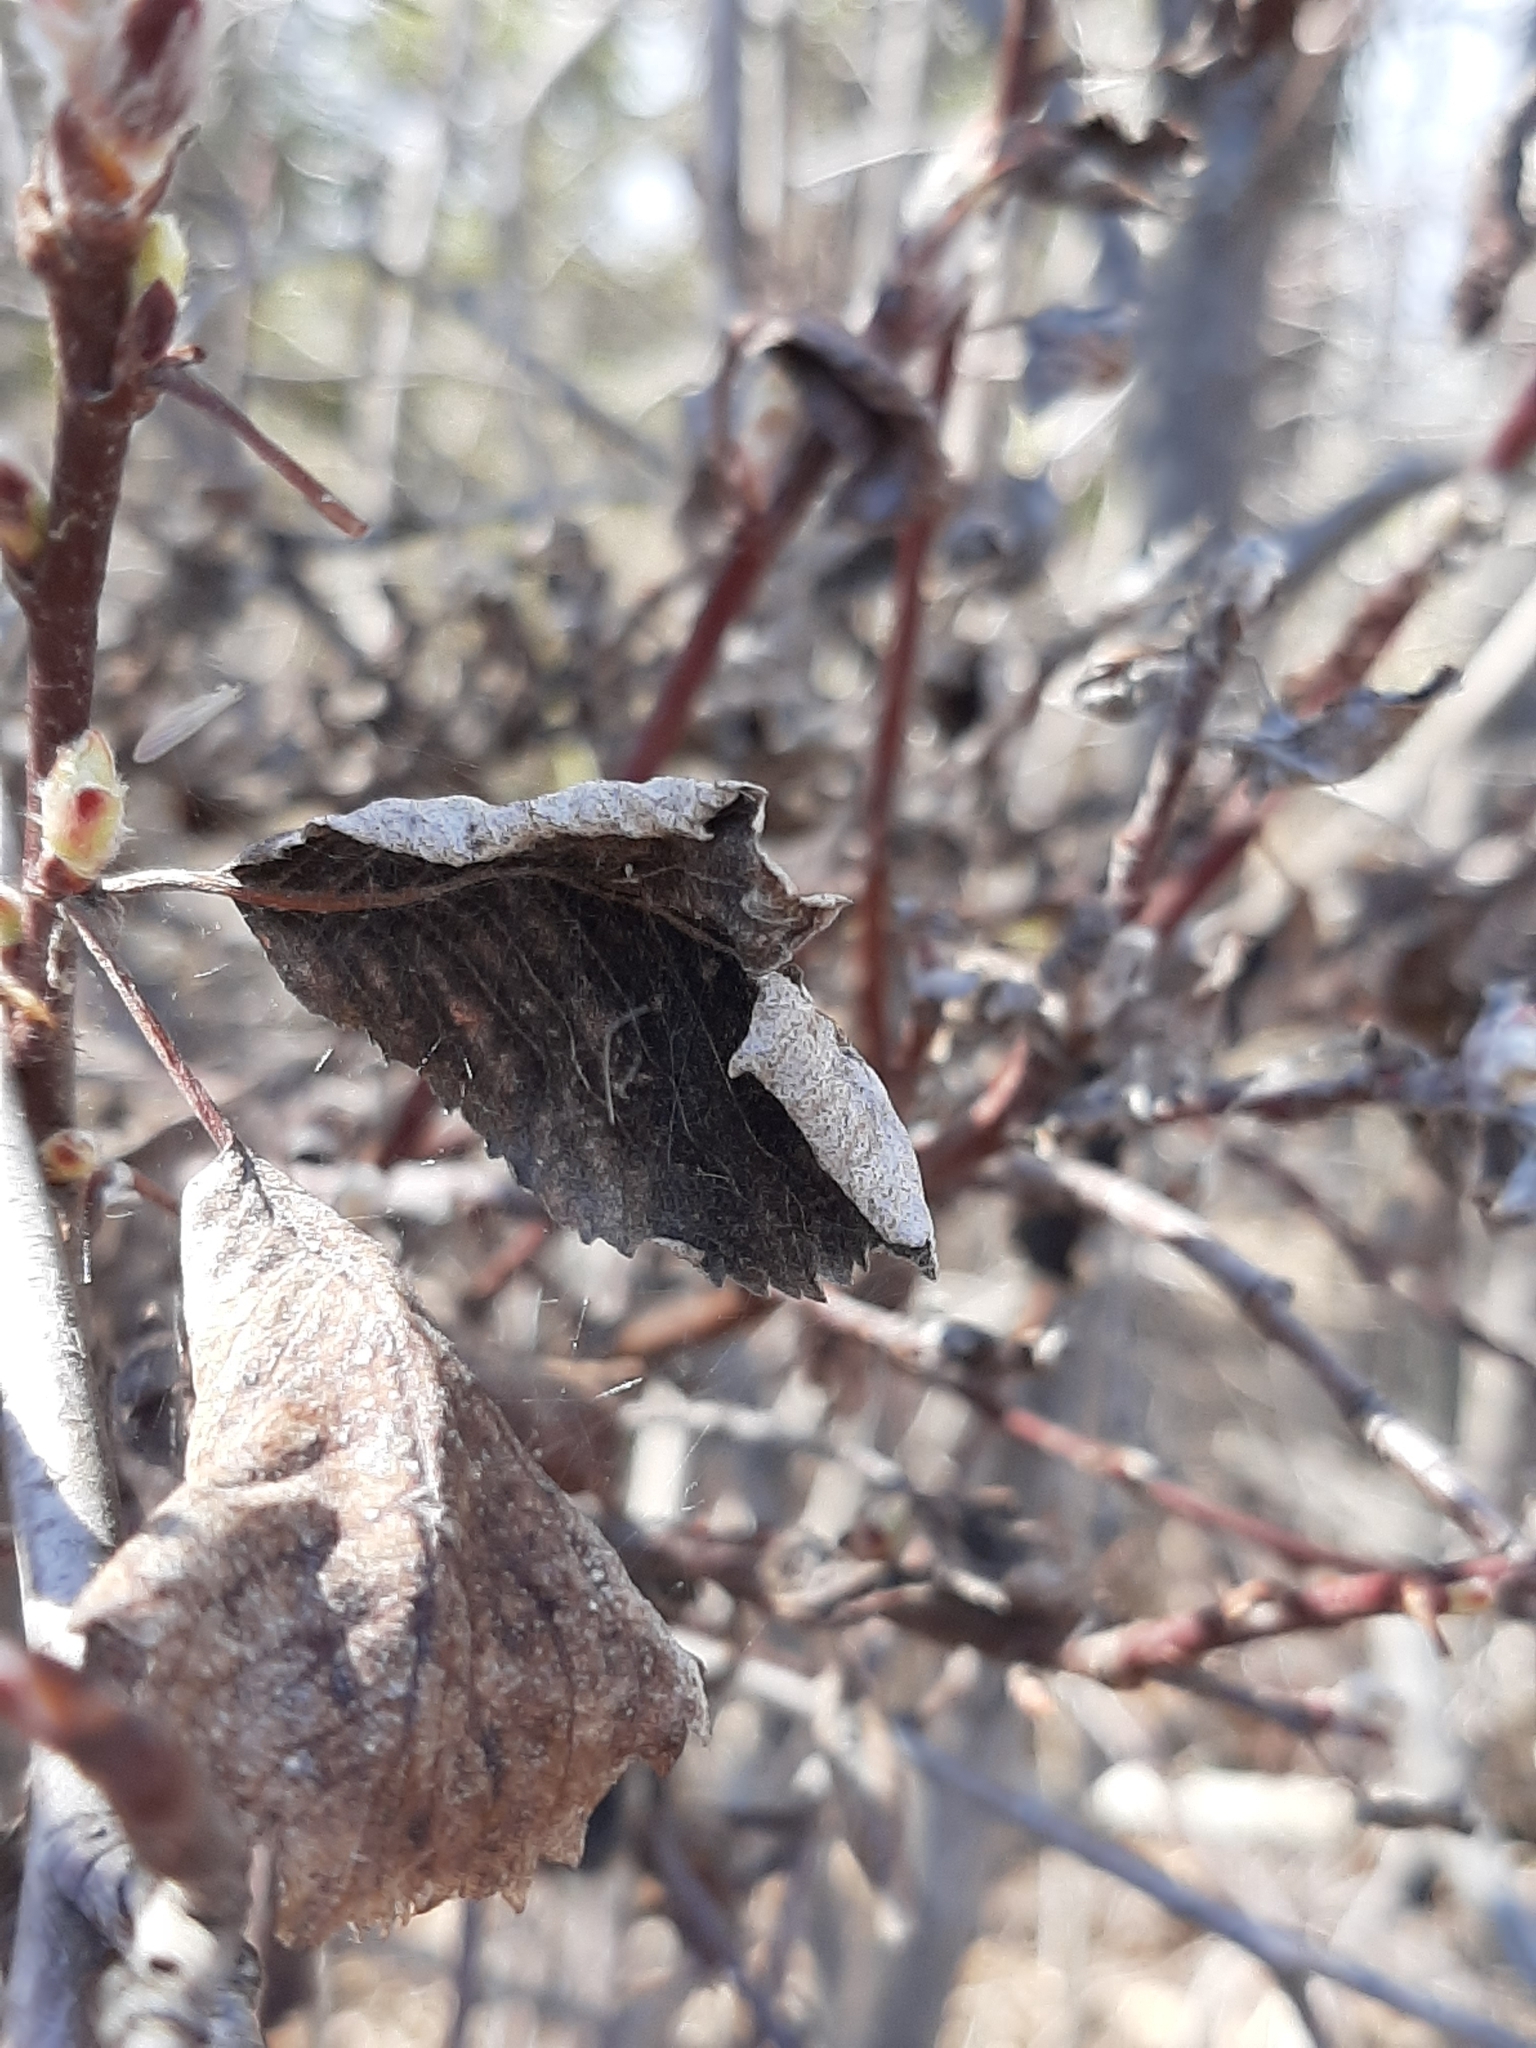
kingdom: Fungi
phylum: Ascomycota
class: Dothideomycetes
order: Venturiales
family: Venturiaceae
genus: Apiosporina
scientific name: Apiosporina collinsii
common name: Black leaf
